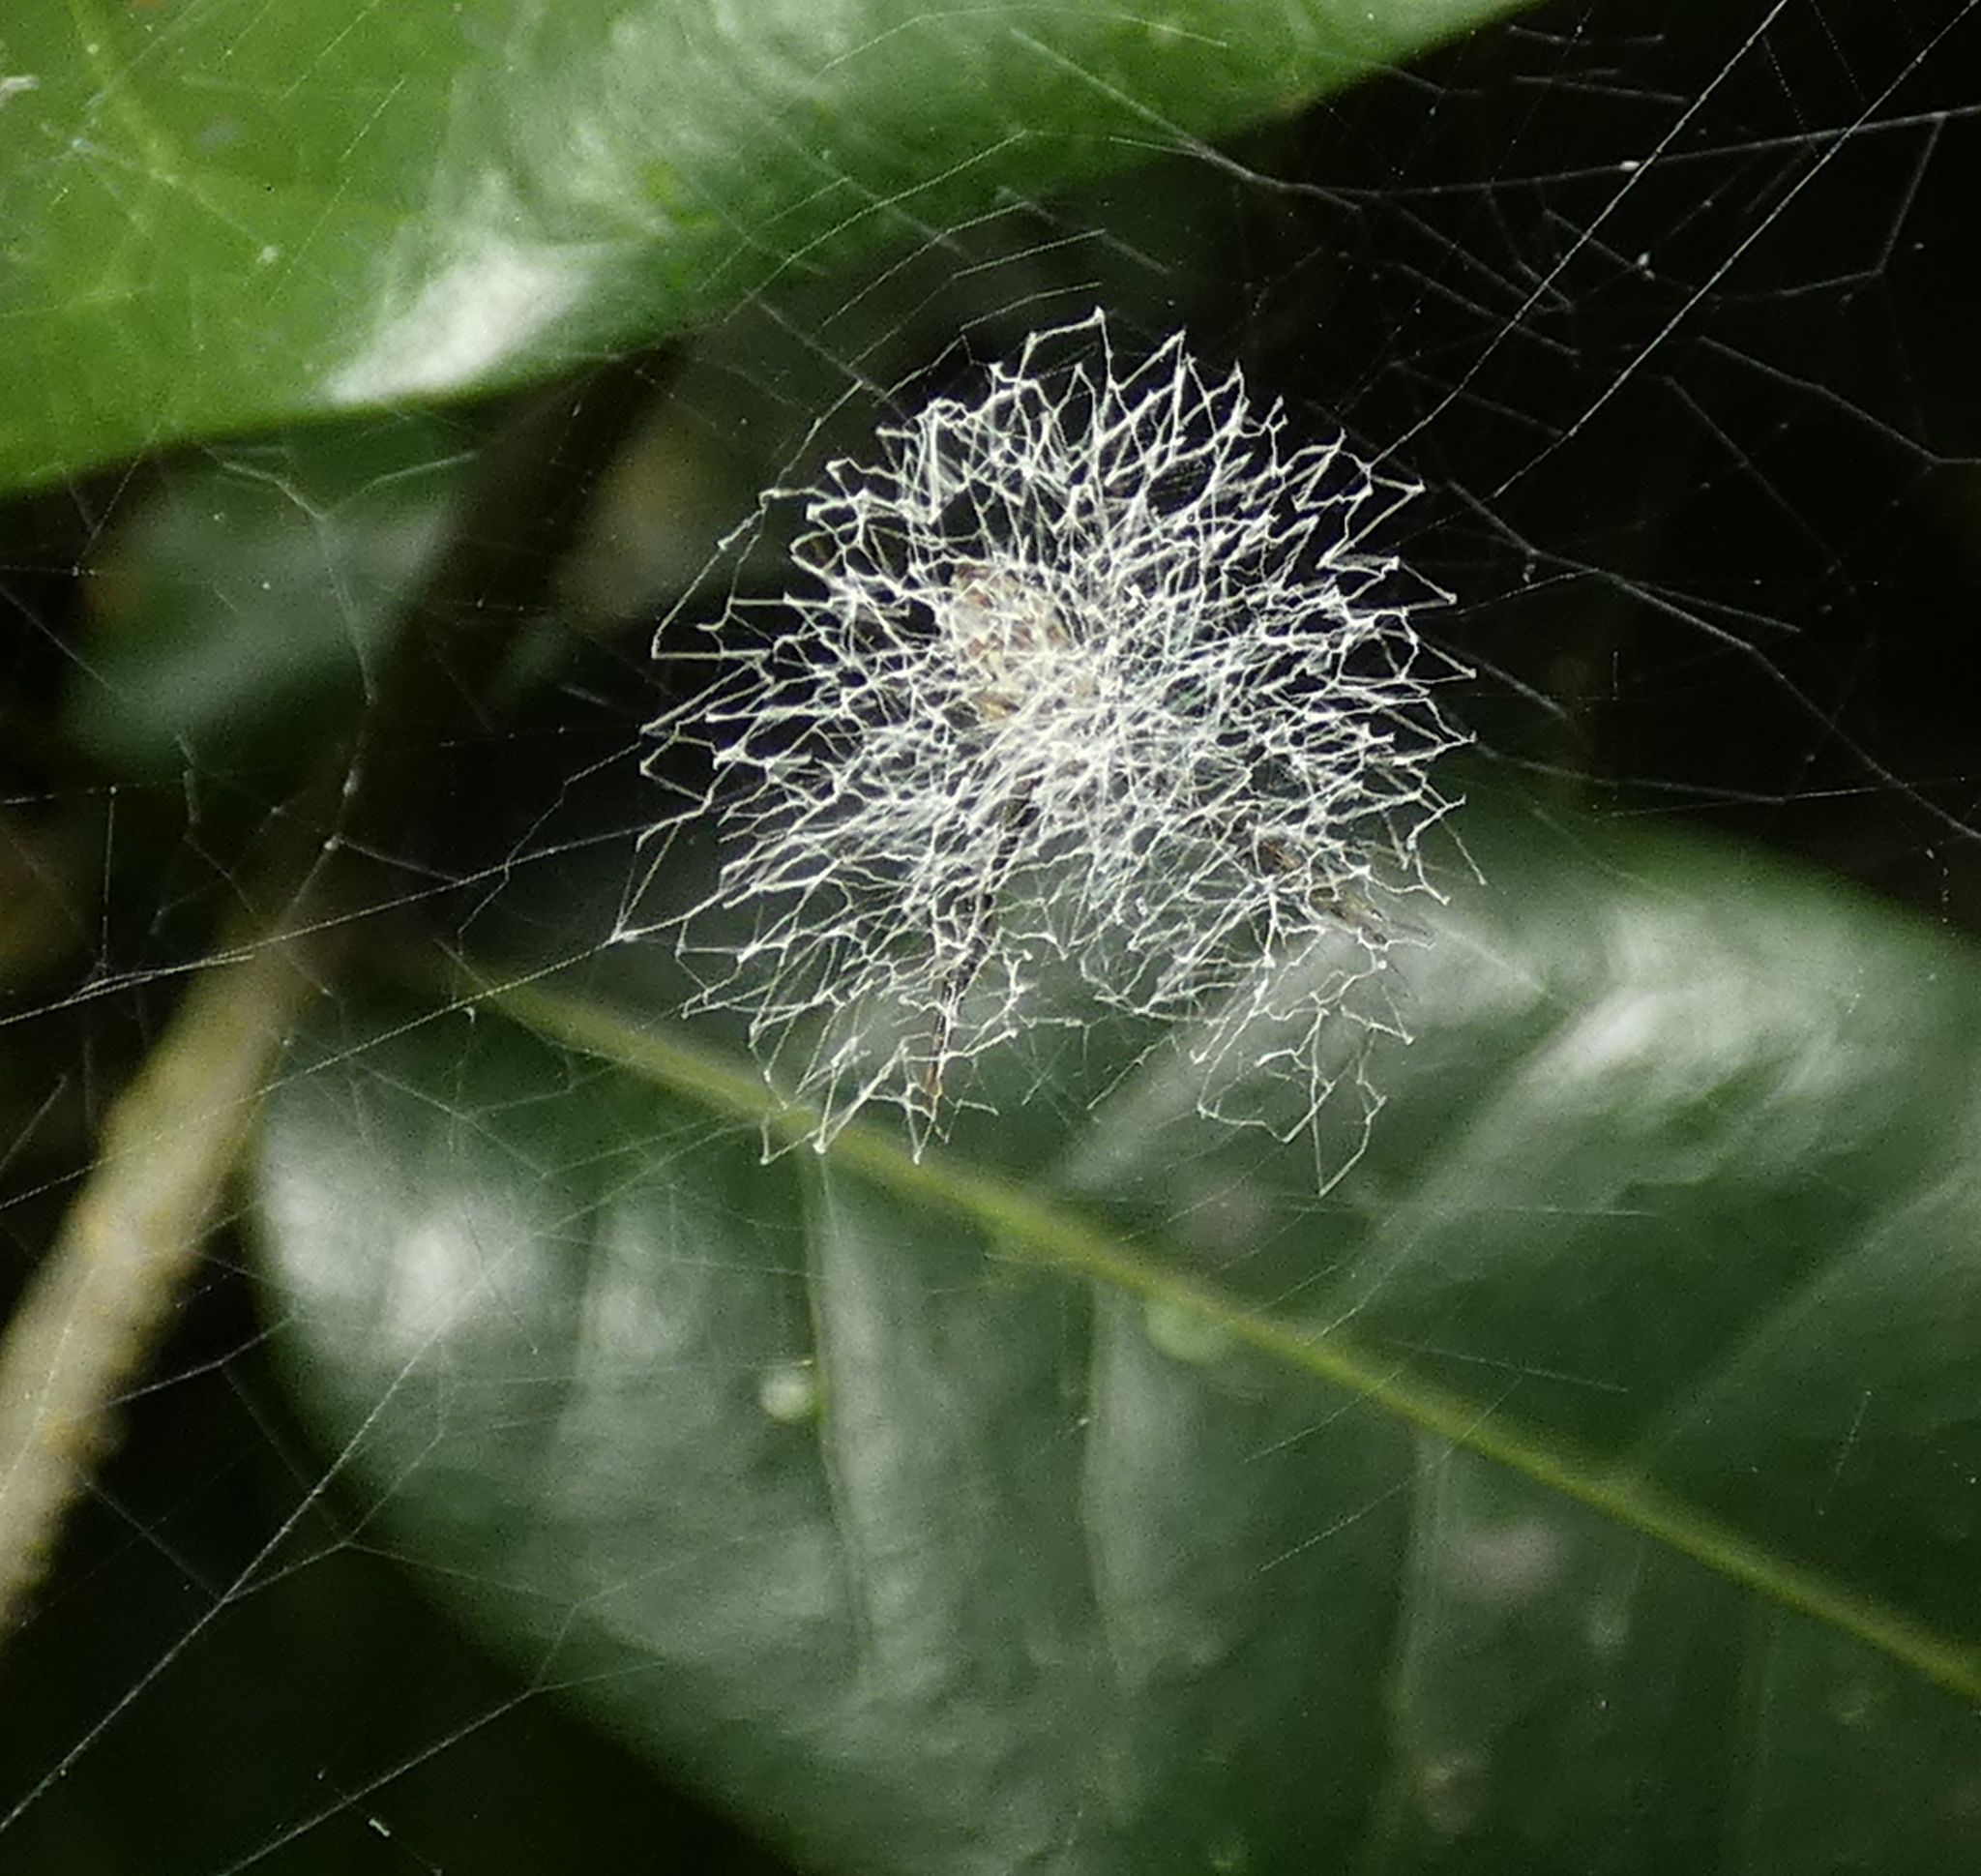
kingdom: Animalia
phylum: Arthropoda
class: Arachnida
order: Araneae
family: Araneidae
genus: Argiope
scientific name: Argiope argentata
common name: Orb weavers
